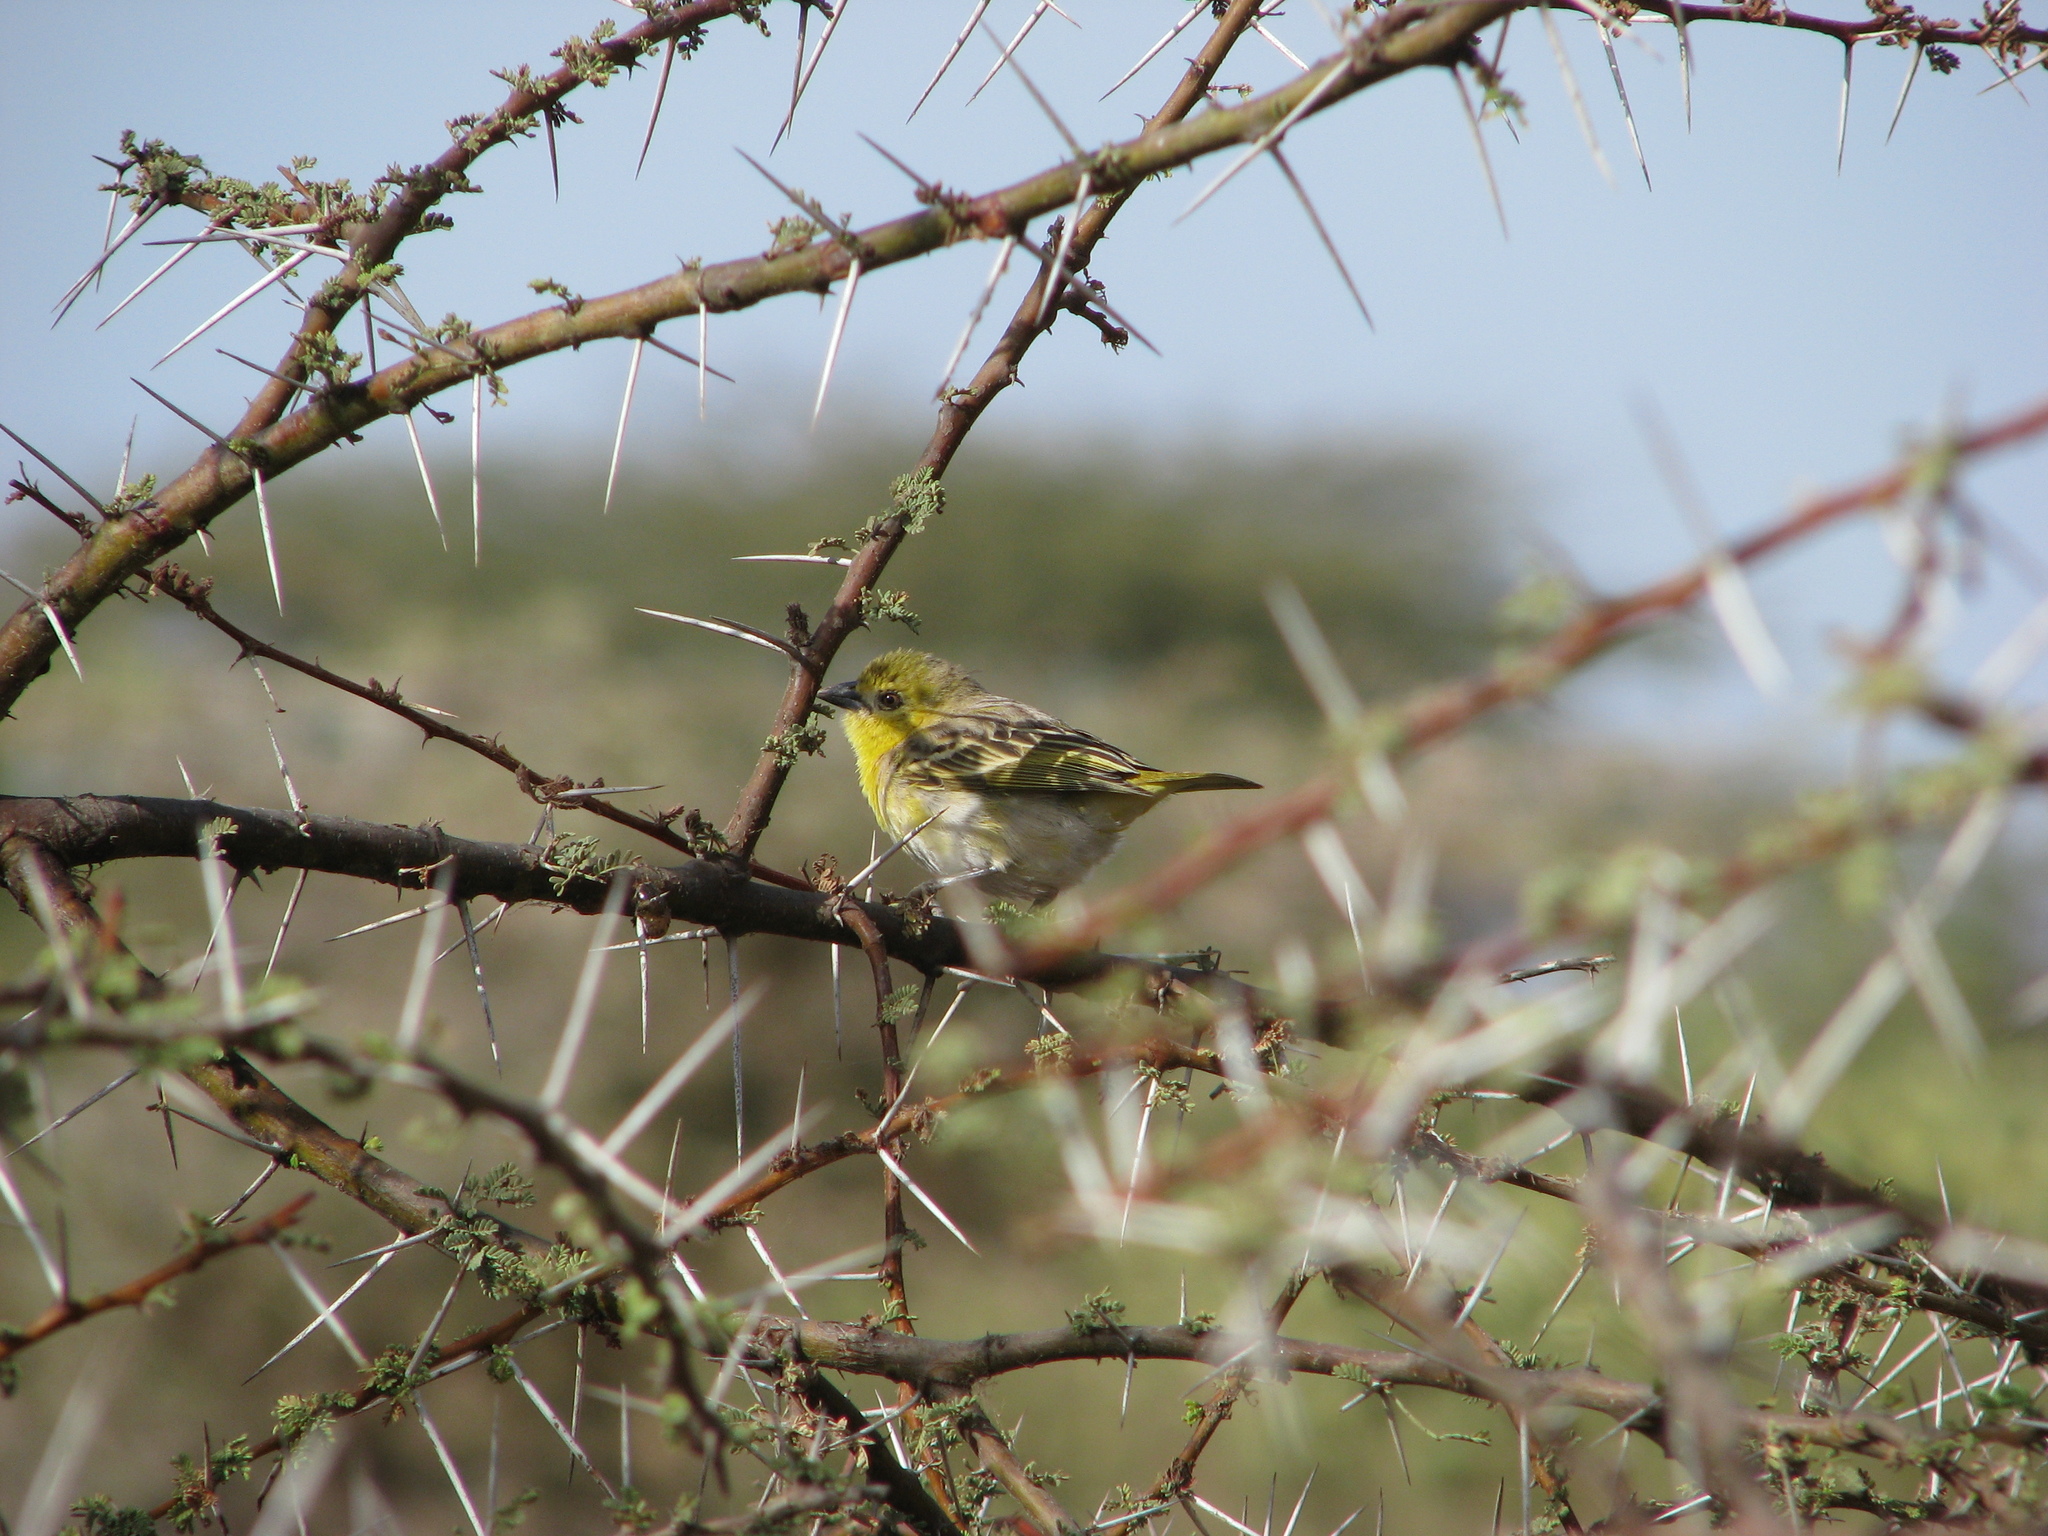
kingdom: Animalia
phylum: Chordata
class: Aves
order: Passeriformes
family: Ploceidae
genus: Ploceus
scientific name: Ploceus luteolus
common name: Little weaver
